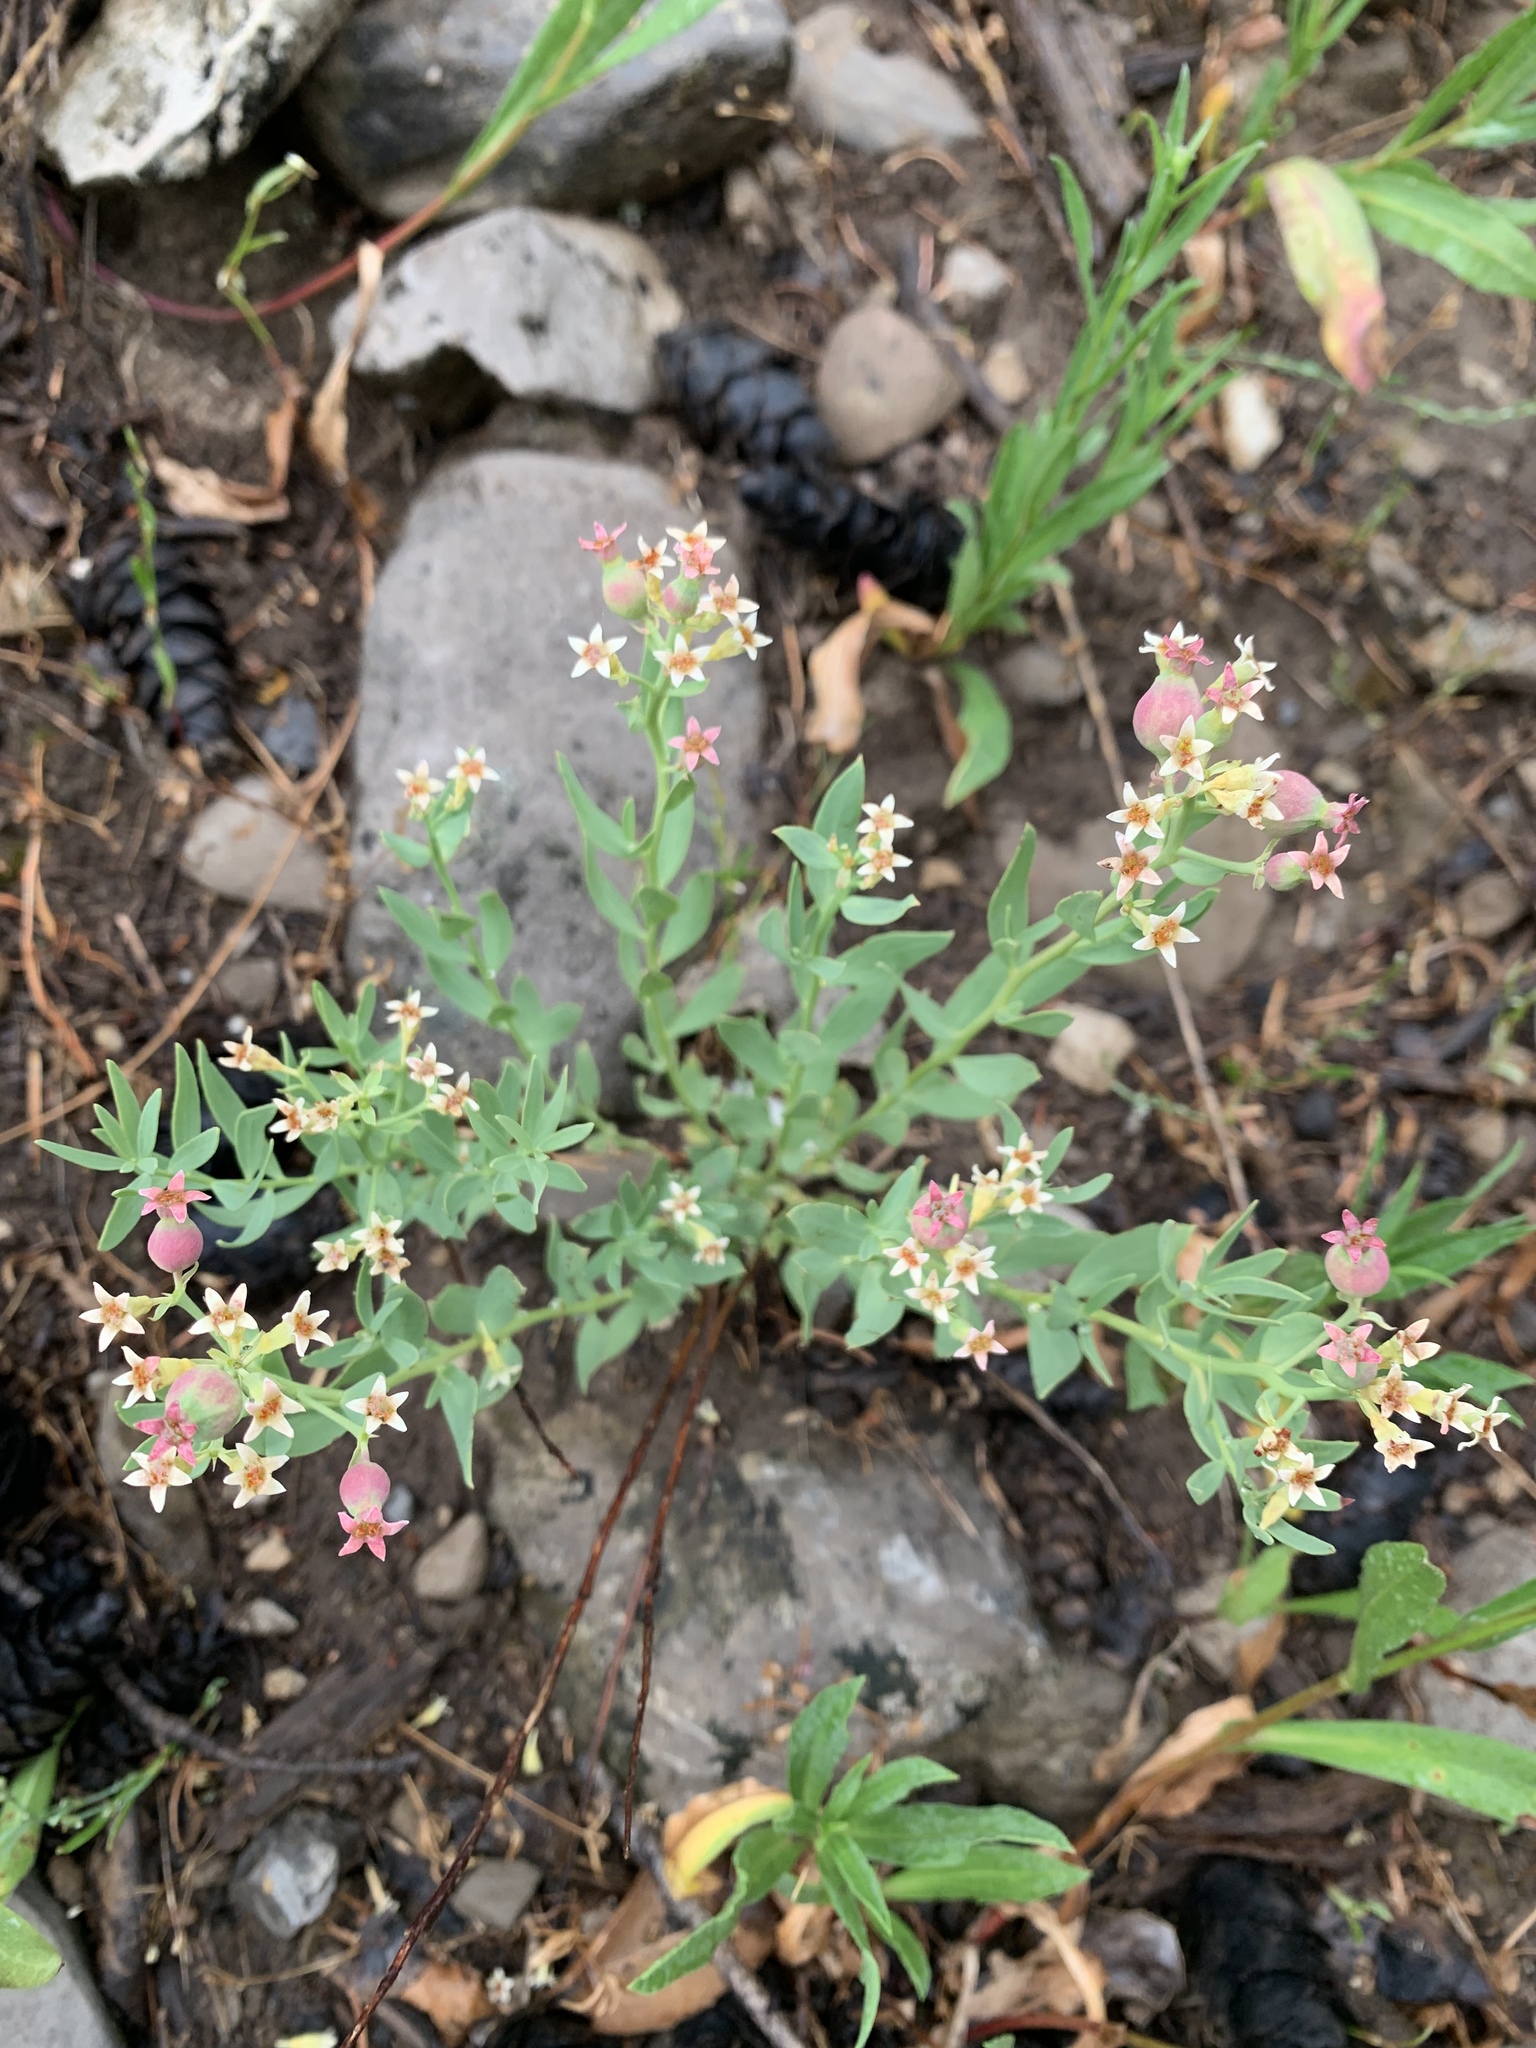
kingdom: Plantae
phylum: Tracheophyta
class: Magnoliopsida
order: Santalales
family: Comandraceae
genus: Comandra
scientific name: Comandra umbellata
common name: Bastard toadflax
